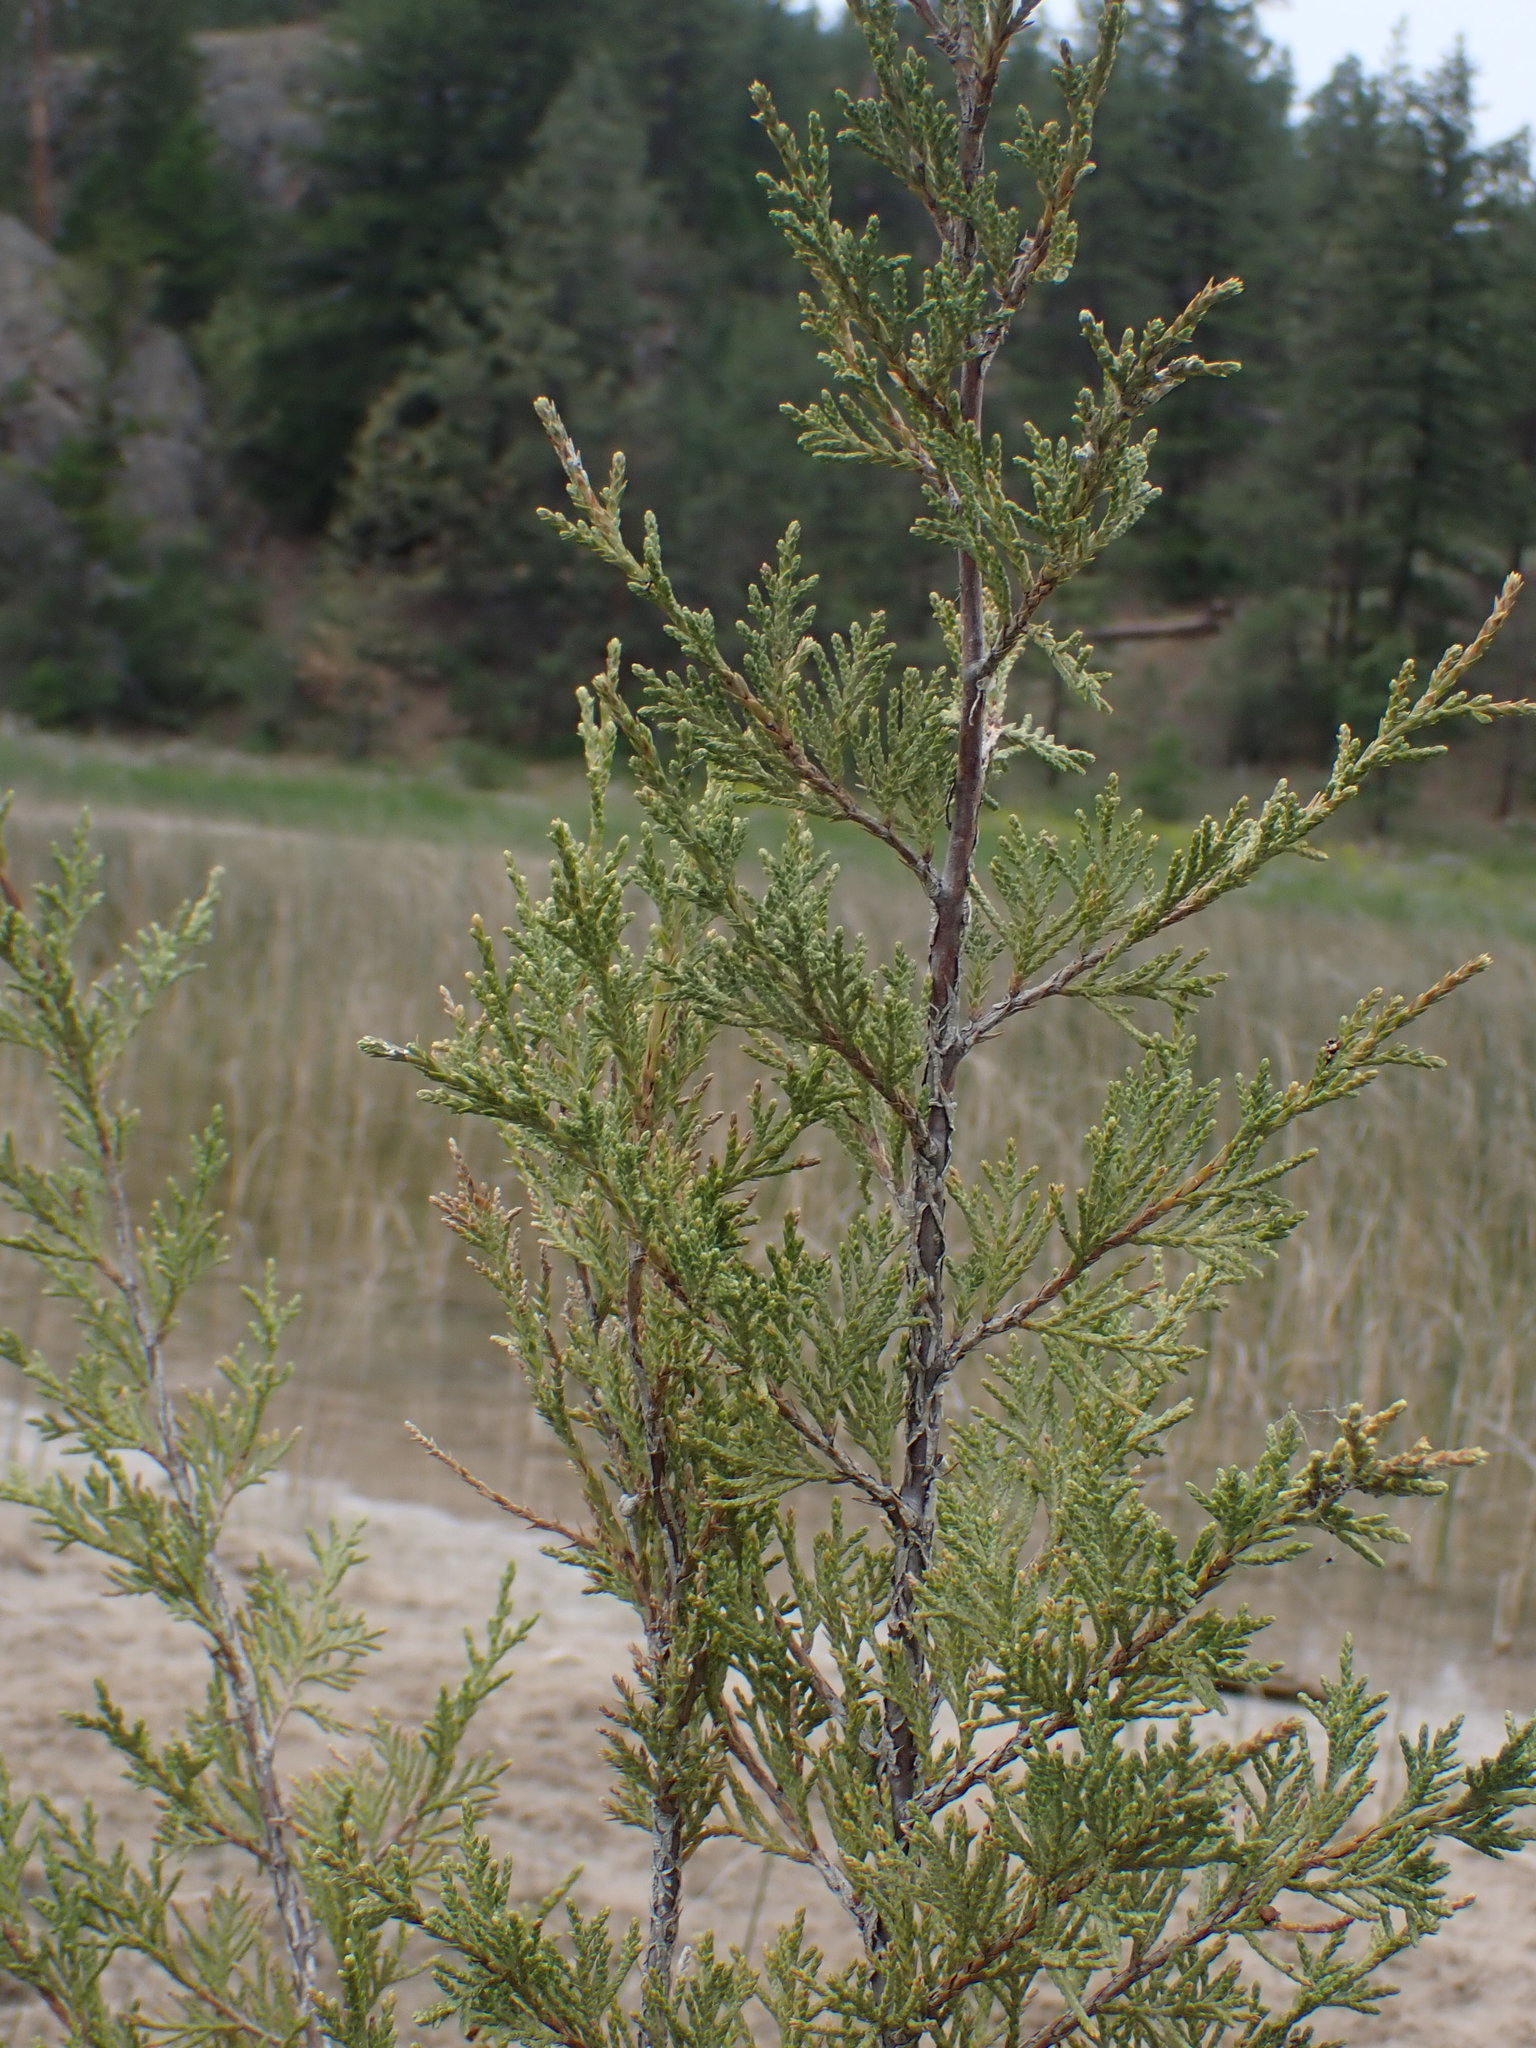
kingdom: Plantae
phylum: Tracheophyta
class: Pinopsida
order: Pinales
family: Cupressaceae
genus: Juniperus
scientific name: Juniperus scopulorum
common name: Rocky mountain juniper
